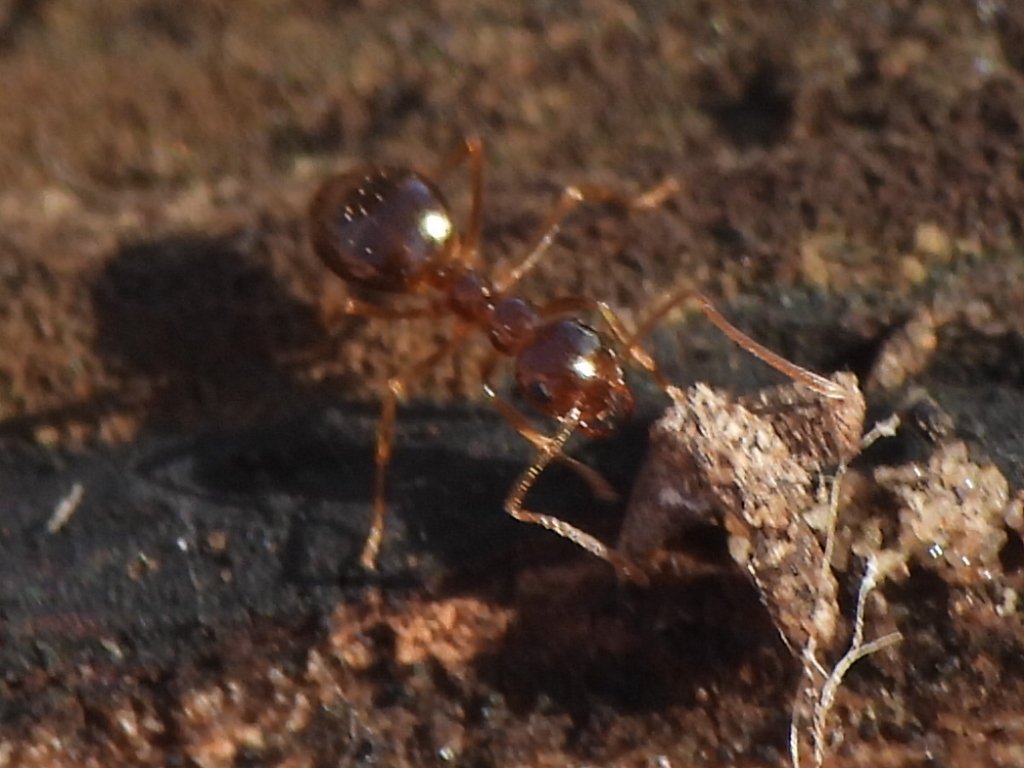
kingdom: Animalia
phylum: Arthropoda
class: Insecta
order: Hymenoptera
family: Formicidae
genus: Prenolepis
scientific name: Prenolepis imparis
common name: Small honey ant
